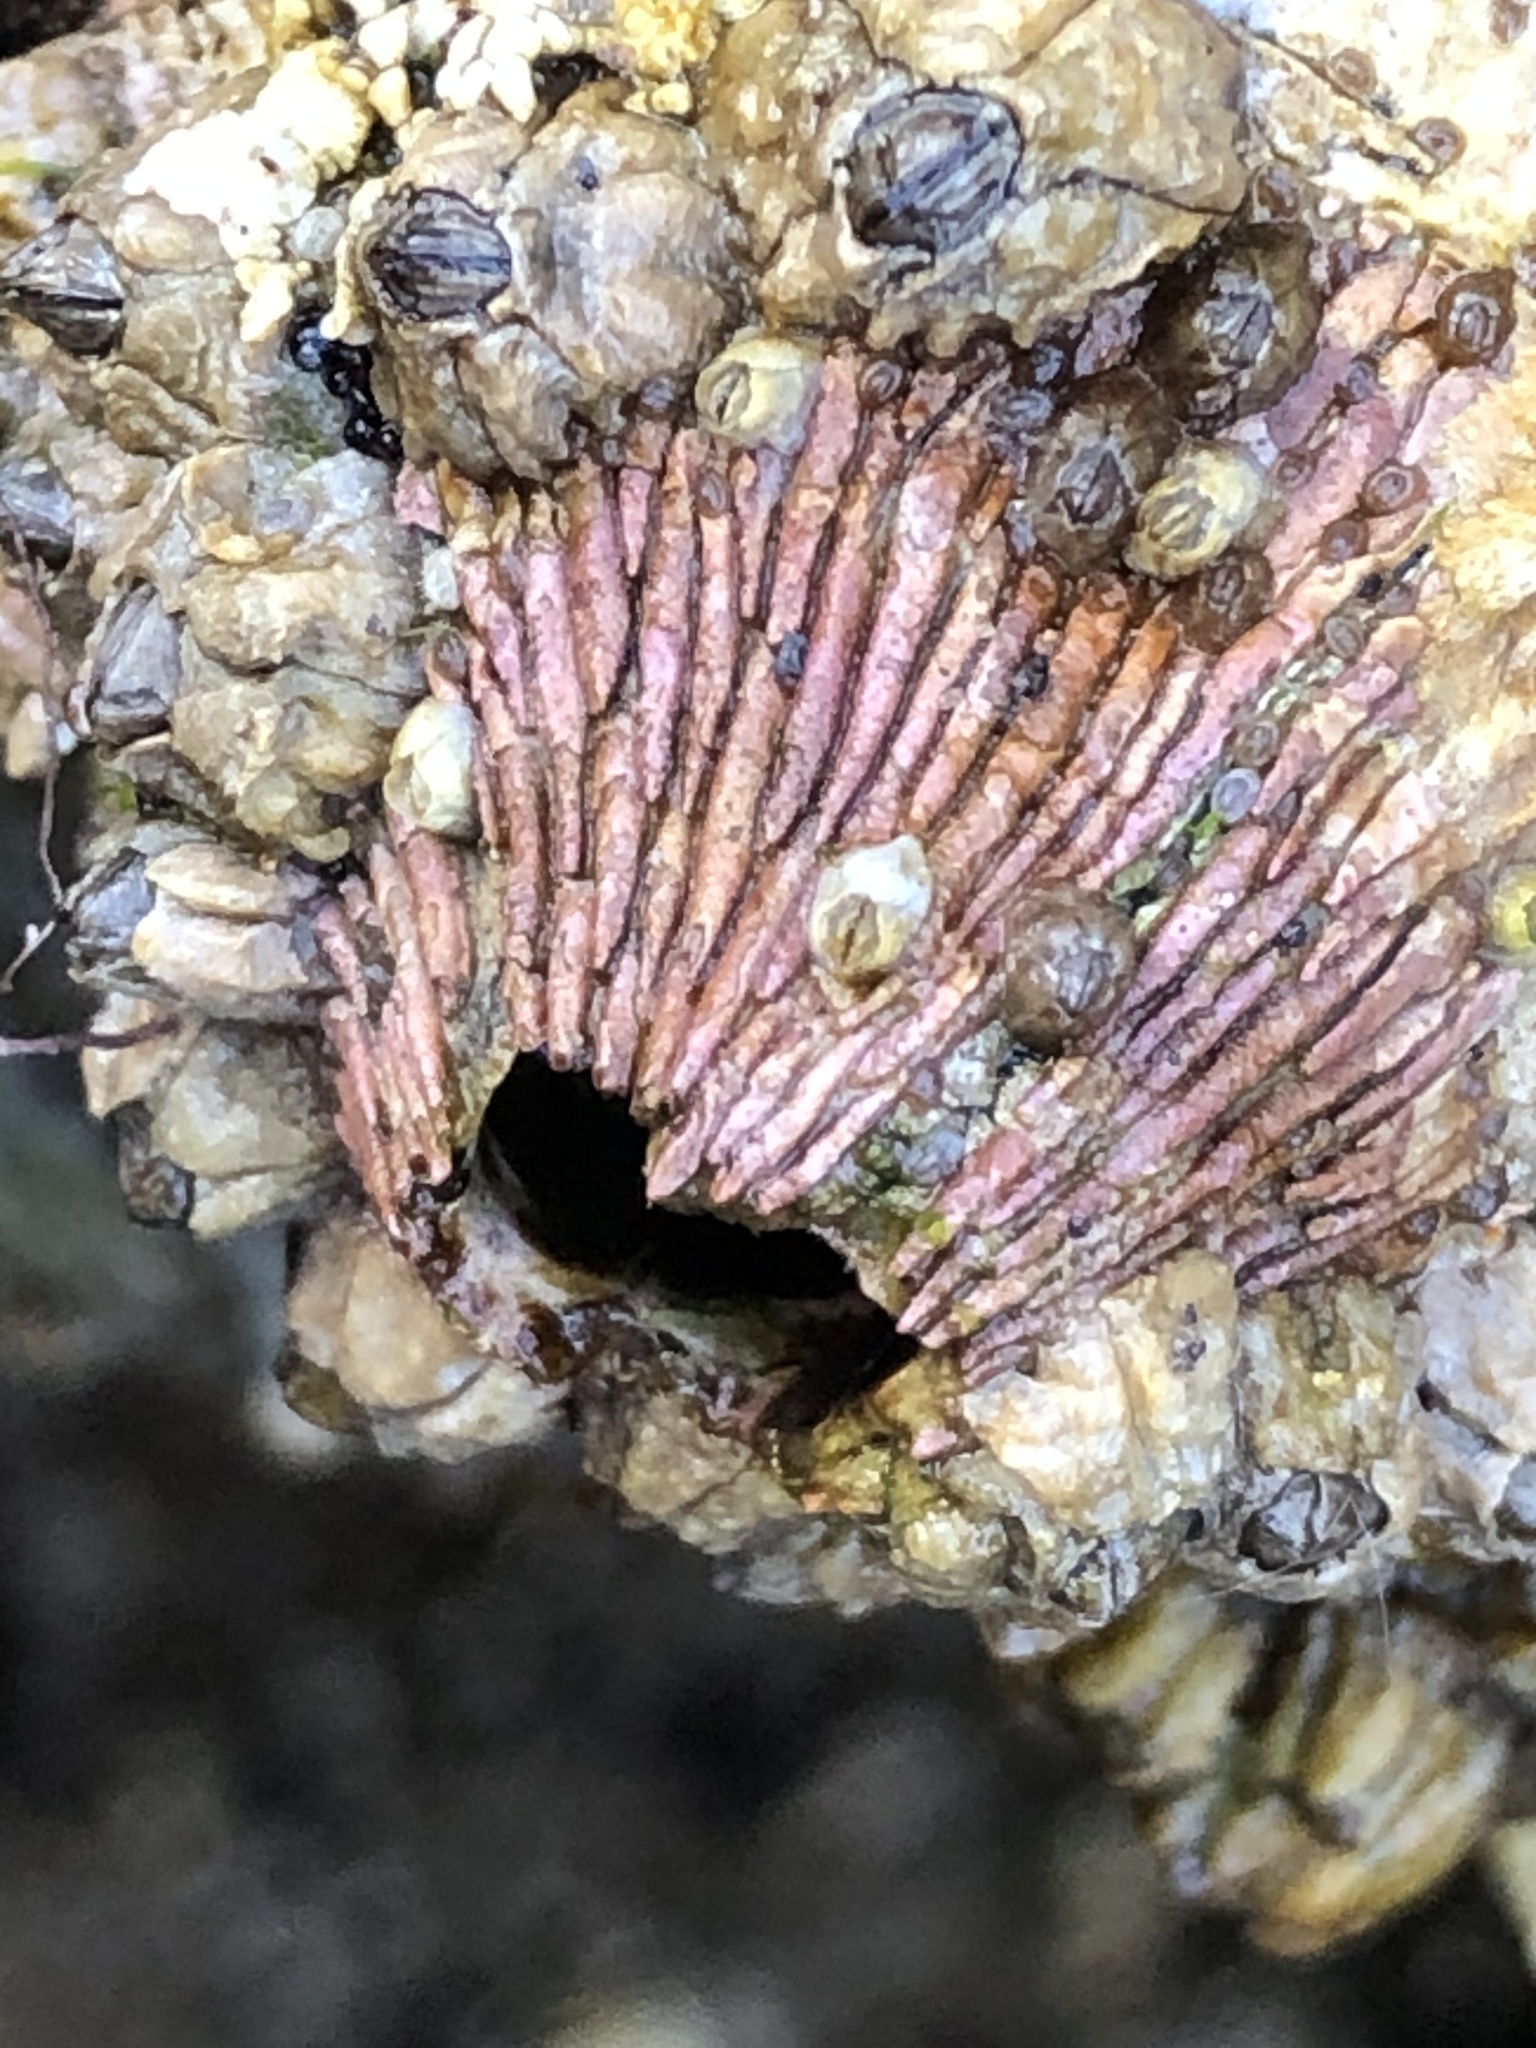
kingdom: Animalia
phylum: Arthropoda
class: Maxillopoda
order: Sessilia
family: Tetraclitidae
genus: Tetraclita
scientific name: Tetraclita rubescens
